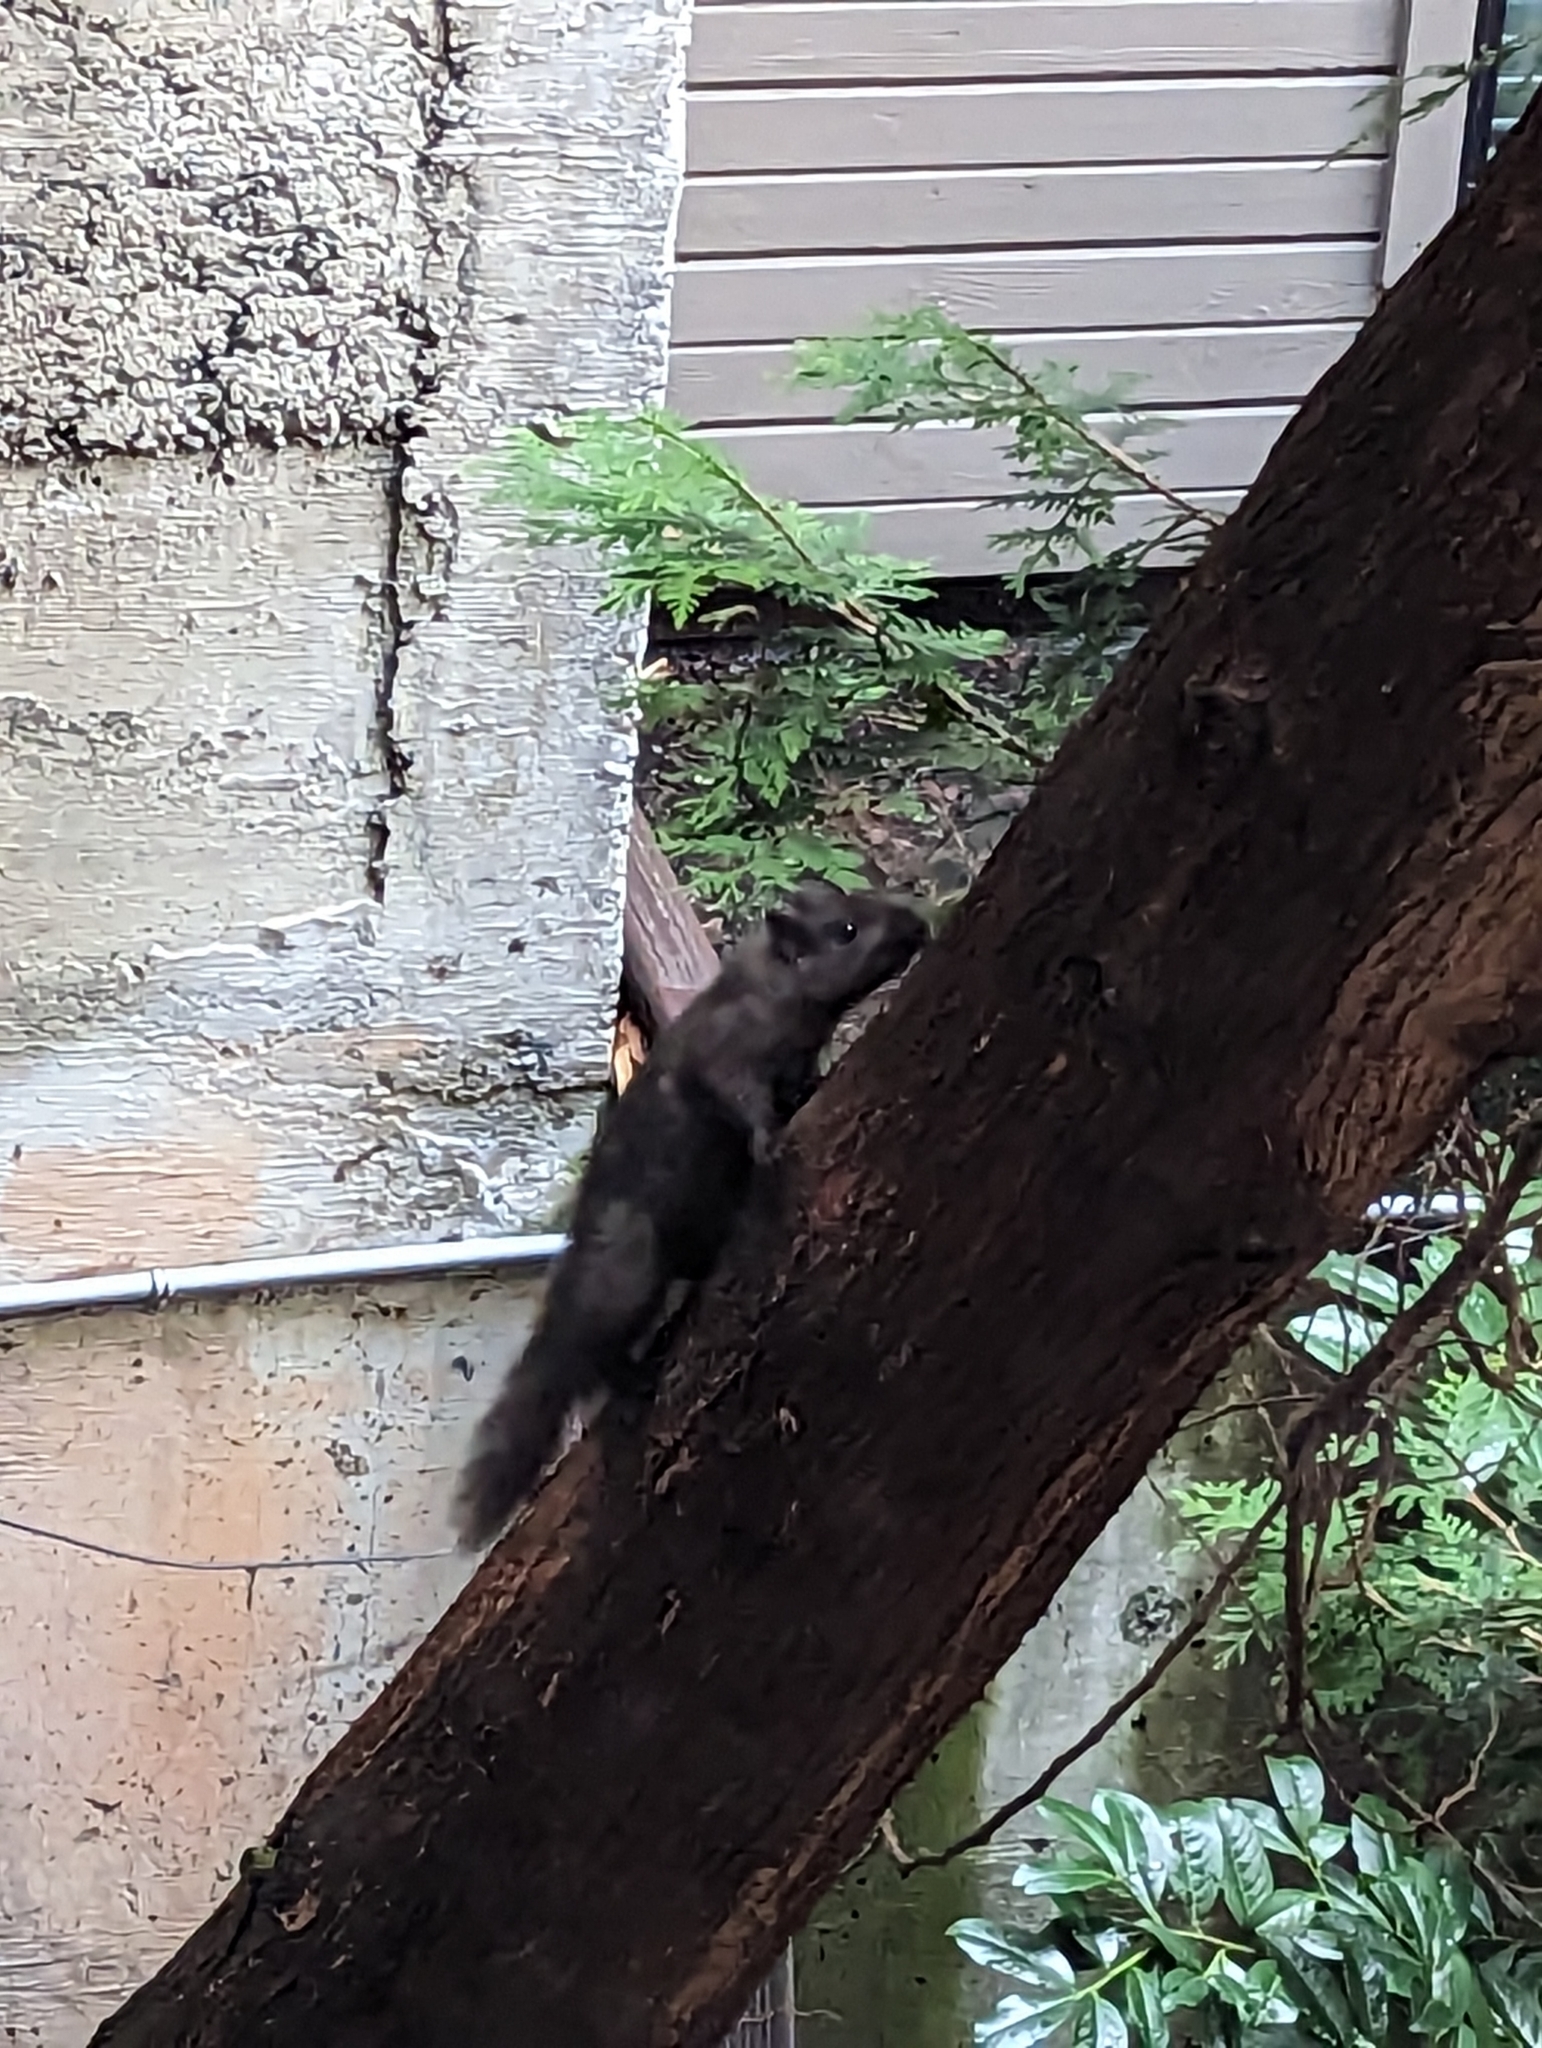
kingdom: Animalia
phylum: Chordata
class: Mammalia
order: Rodentia
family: Sciuridae
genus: Sciurus
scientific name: Sciurus carolinensis
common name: Eastern gray squirrel
